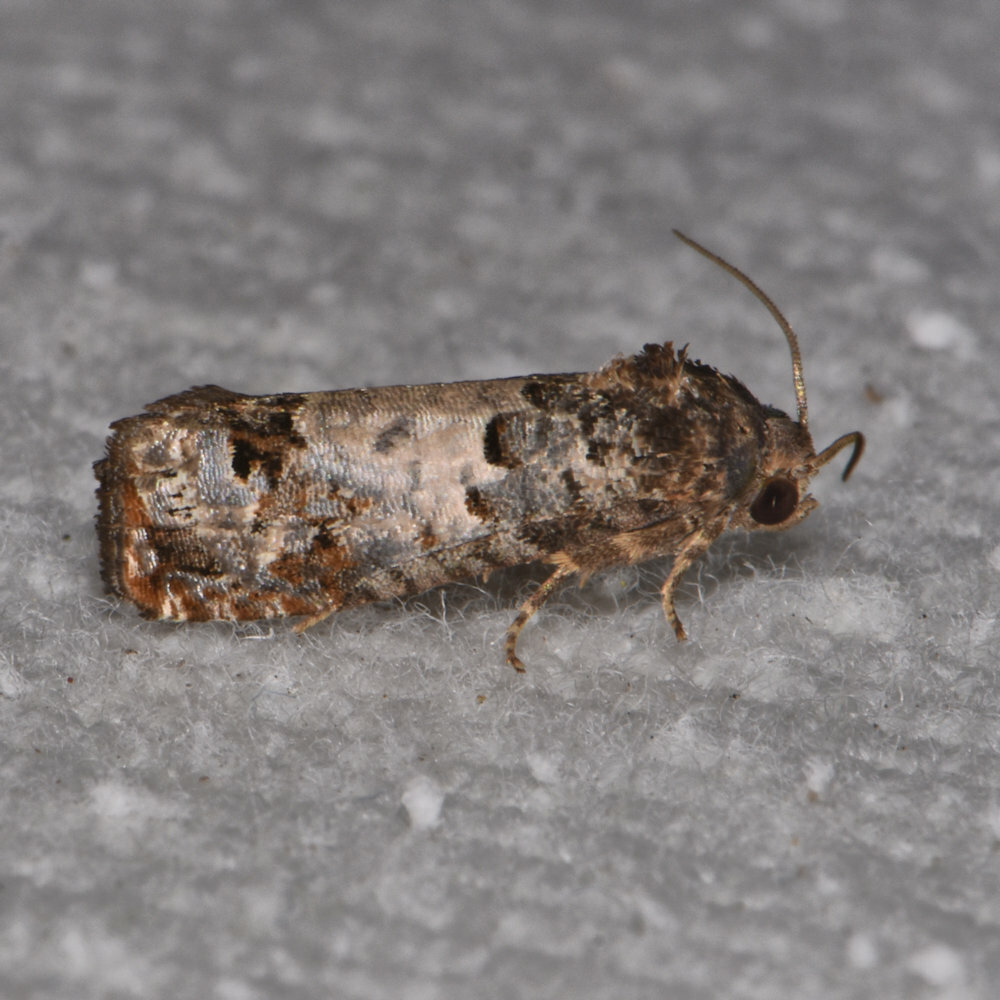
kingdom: Animalia
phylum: Arthropoda
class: Insecta
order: Lepidoptera
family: Tortricidae
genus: Epiblema
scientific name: Epiblema carolinana
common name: Gray-blotched epiblema moth
